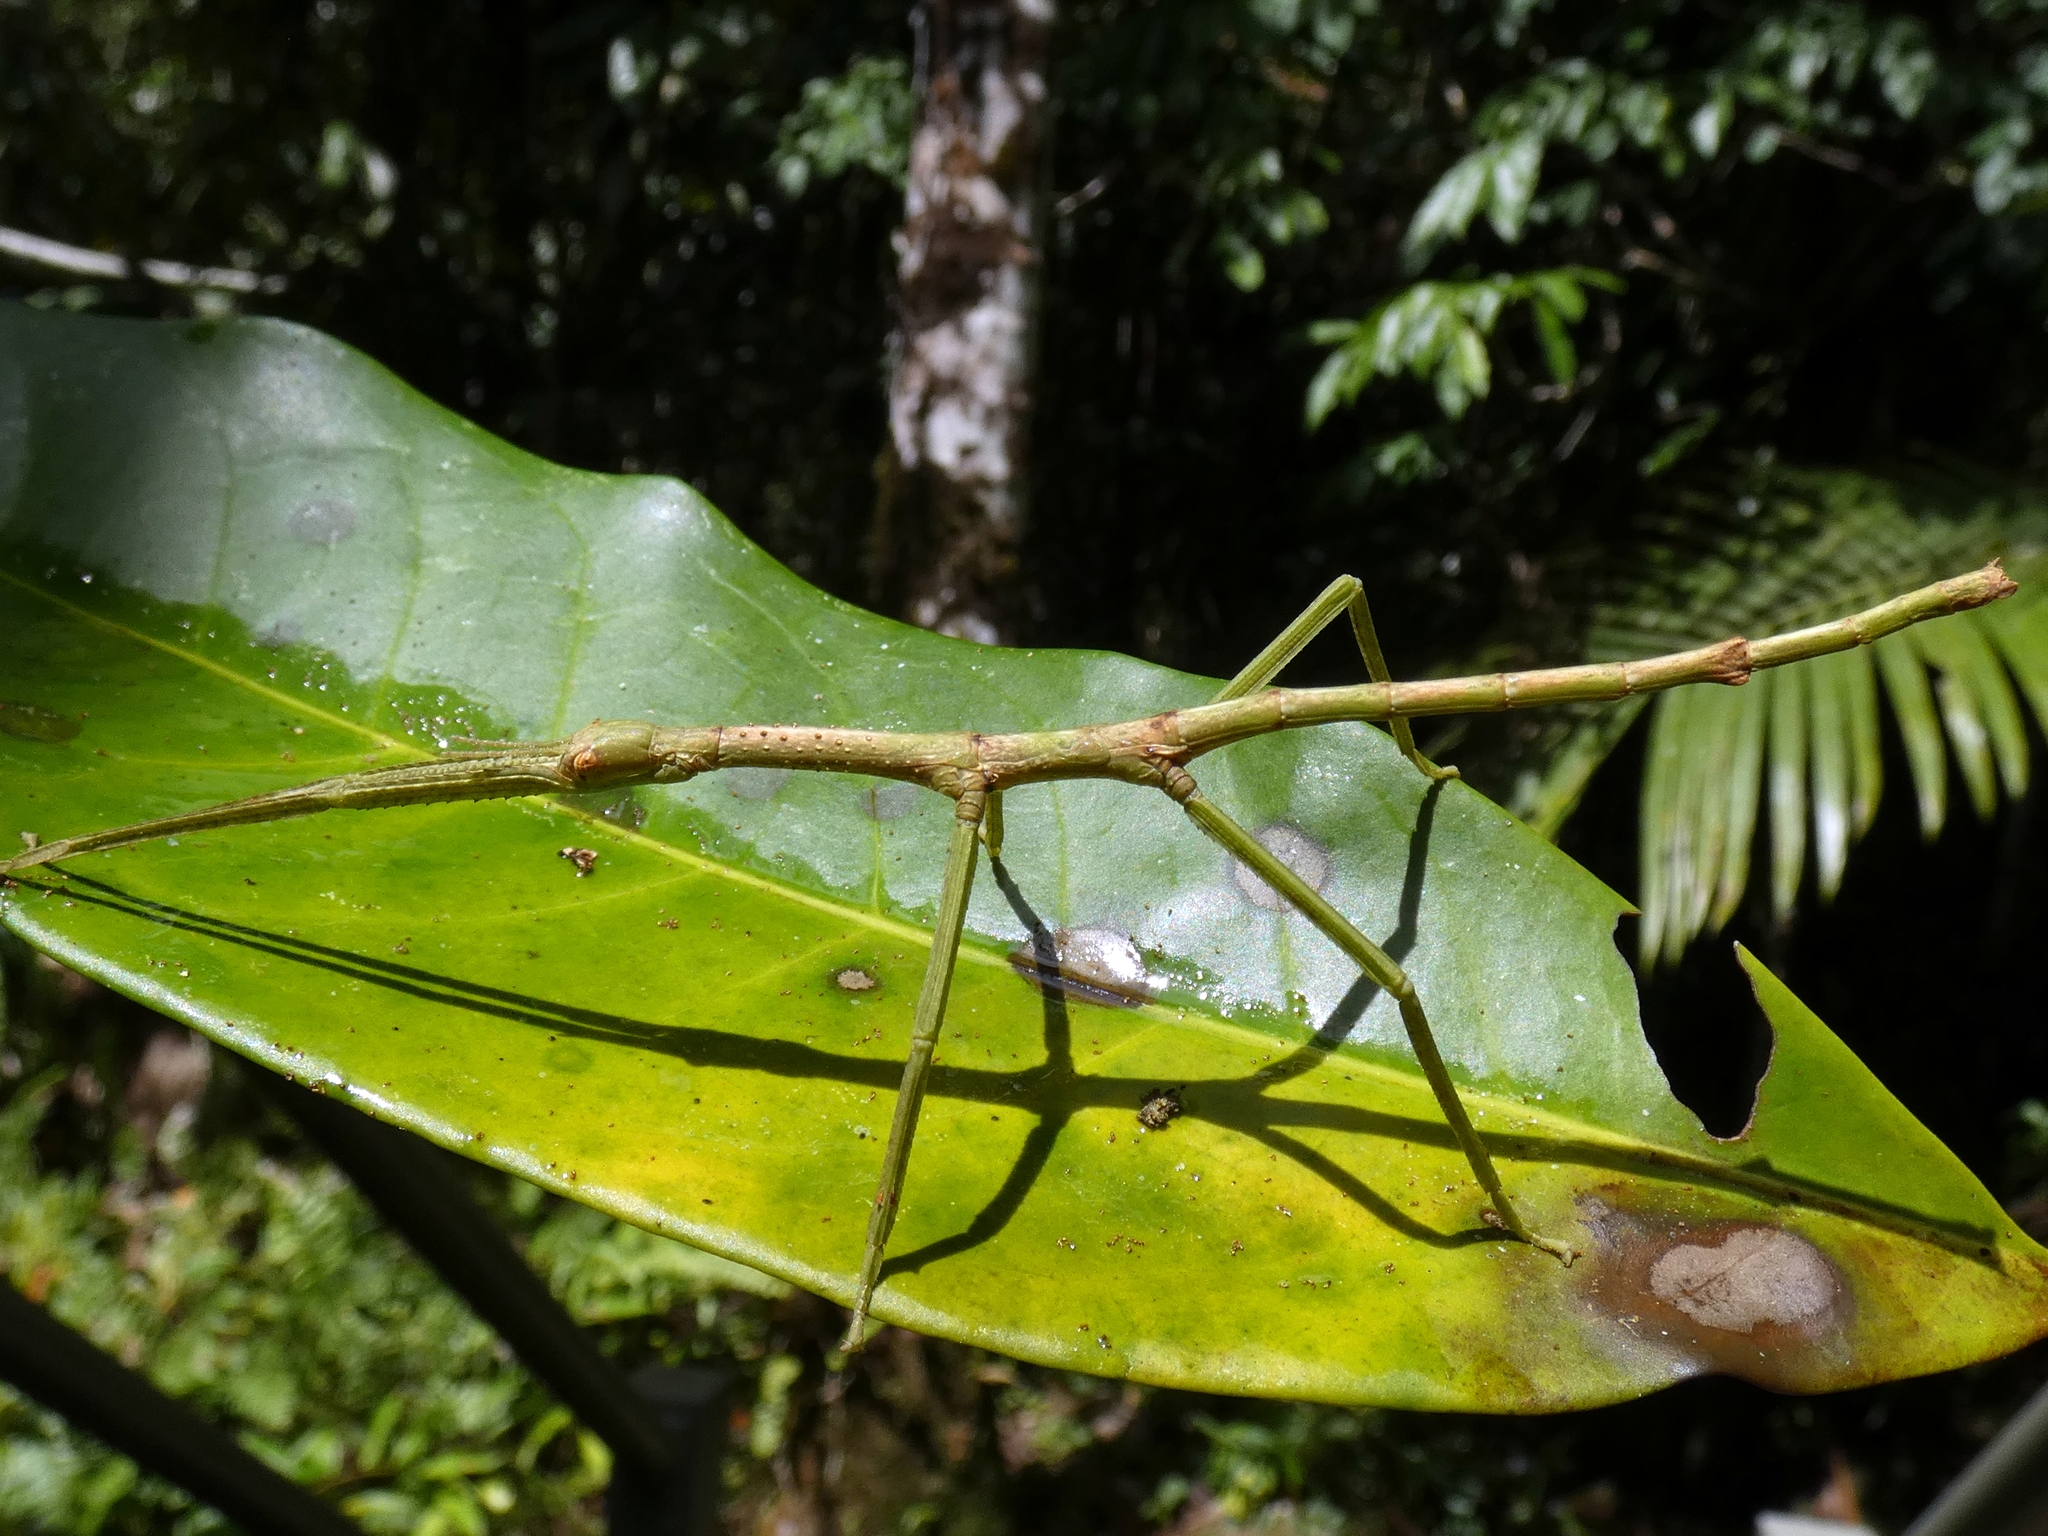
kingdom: Animalia
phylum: Arthropoda
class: Insecta
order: Phasmida
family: Phasmatidae
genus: Acrophylla
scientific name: Acrophylla wuelfingi
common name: Wülfing's stick insect
